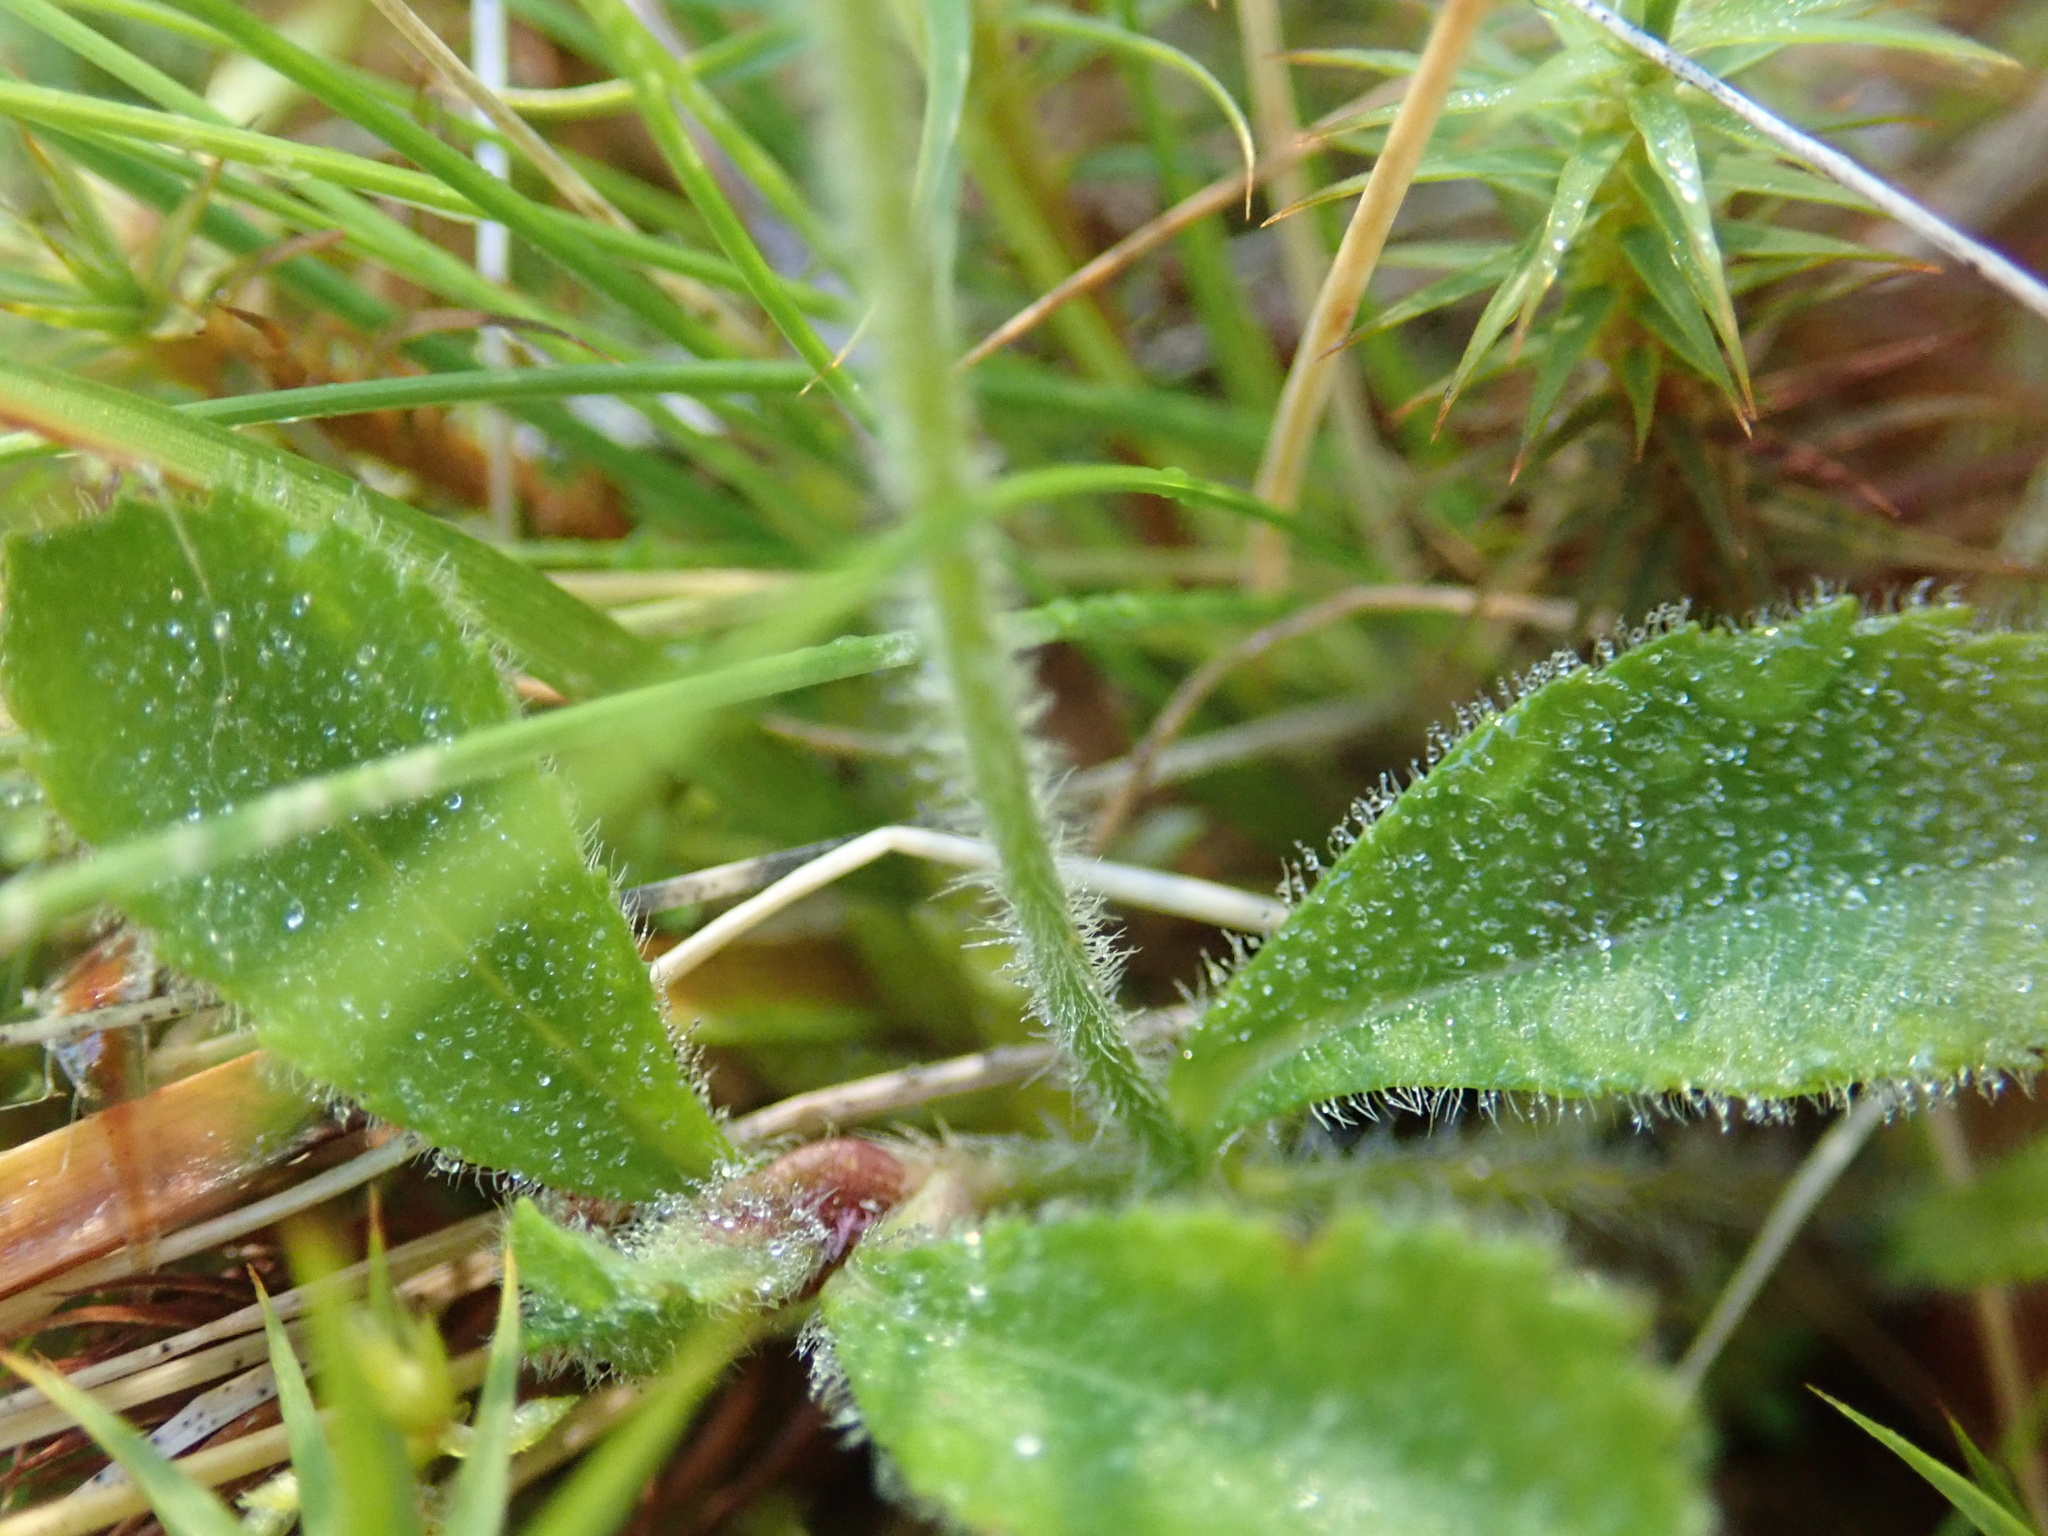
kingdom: Plantae
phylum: Tracheophyta
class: Magnoliopsida
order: Lamiales
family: Plantaginaceae
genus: Veronica
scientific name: Veronica officinalis
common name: Common speedwell
